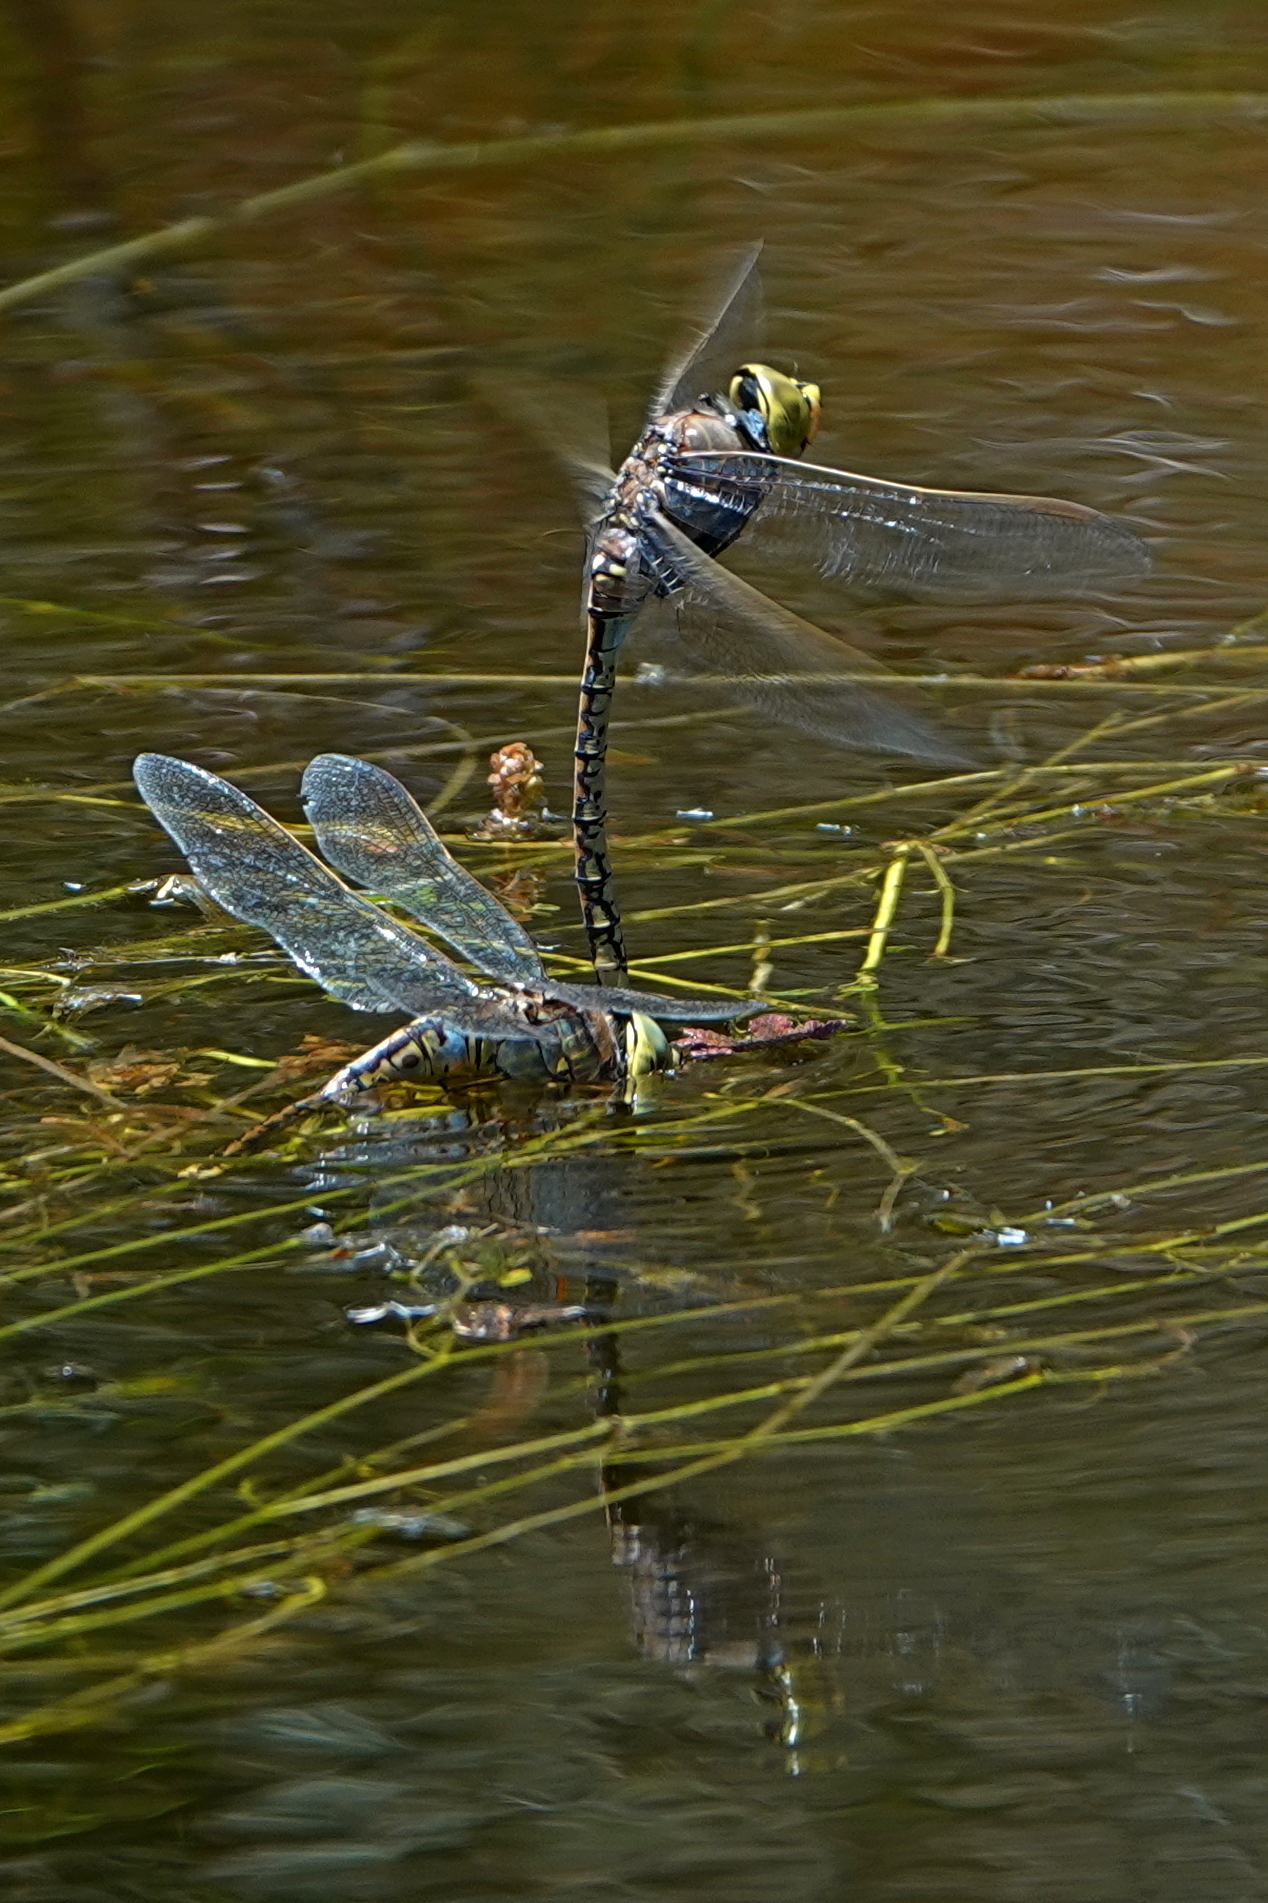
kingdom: Animalia
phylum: Arthropoda
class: Insecta
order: Odonata
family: Aeshnidae
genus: Anax
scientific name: Anax papuensis
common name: Australian emperor
